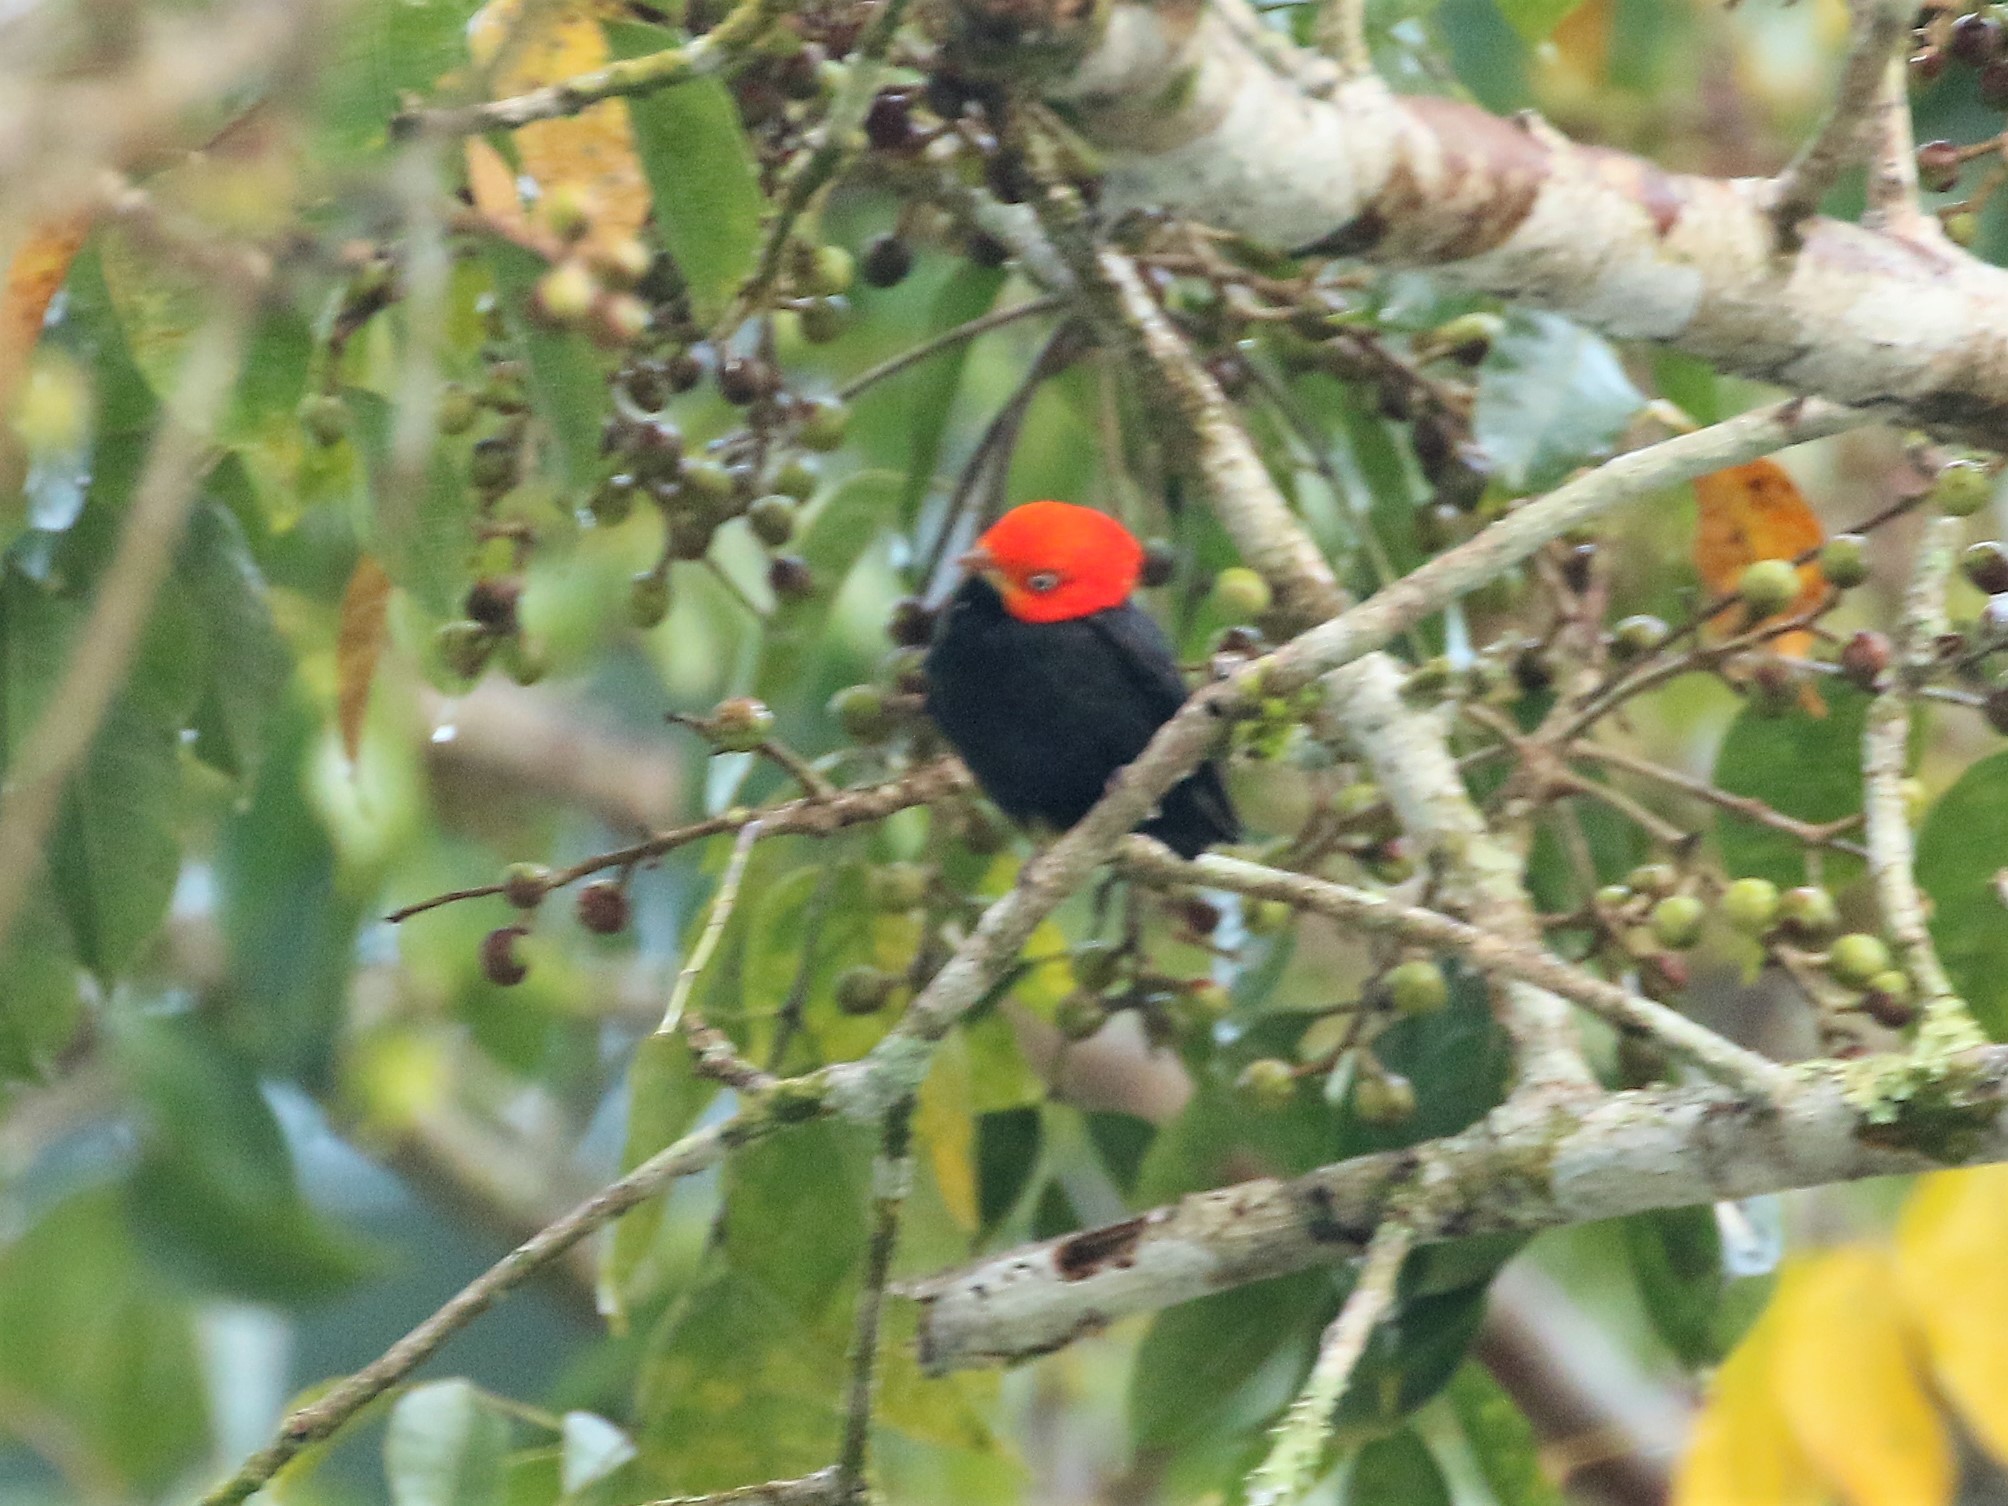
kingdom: Animalia
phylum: Chordata
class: Aves
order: Passeriformes
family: Pipridae
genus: Pipra
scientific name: Pipra mentalis
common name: Red-capped manakin
